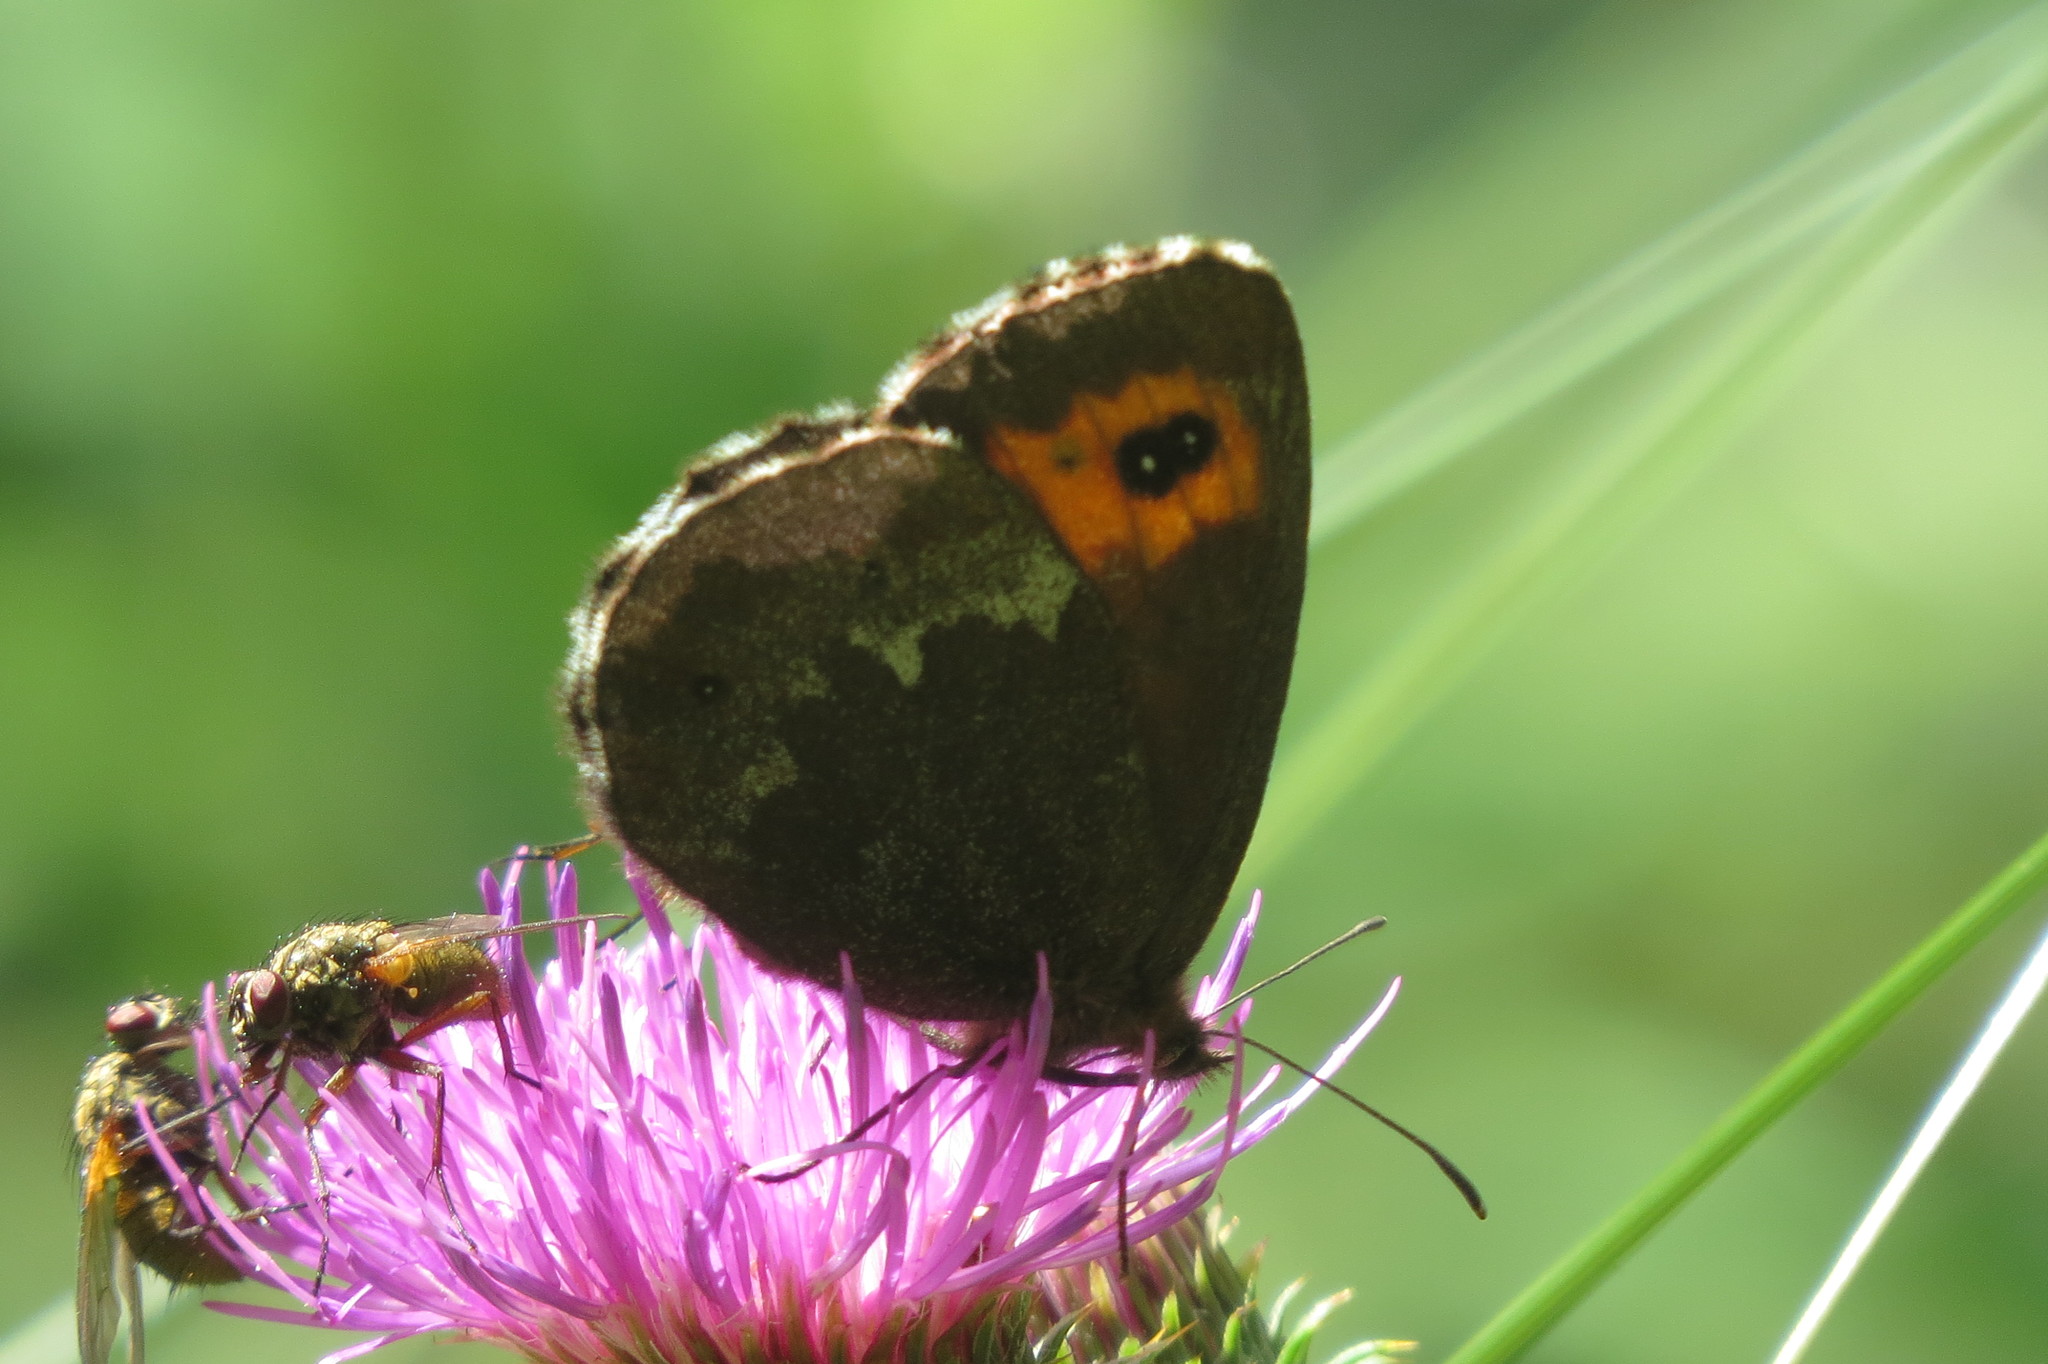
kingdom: Animalia
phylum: Arthropoda
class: Insecta
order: Lepidoptera
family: Nymphalidae
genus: Erebia
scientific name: Erebia euryale
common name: Large ringlet
